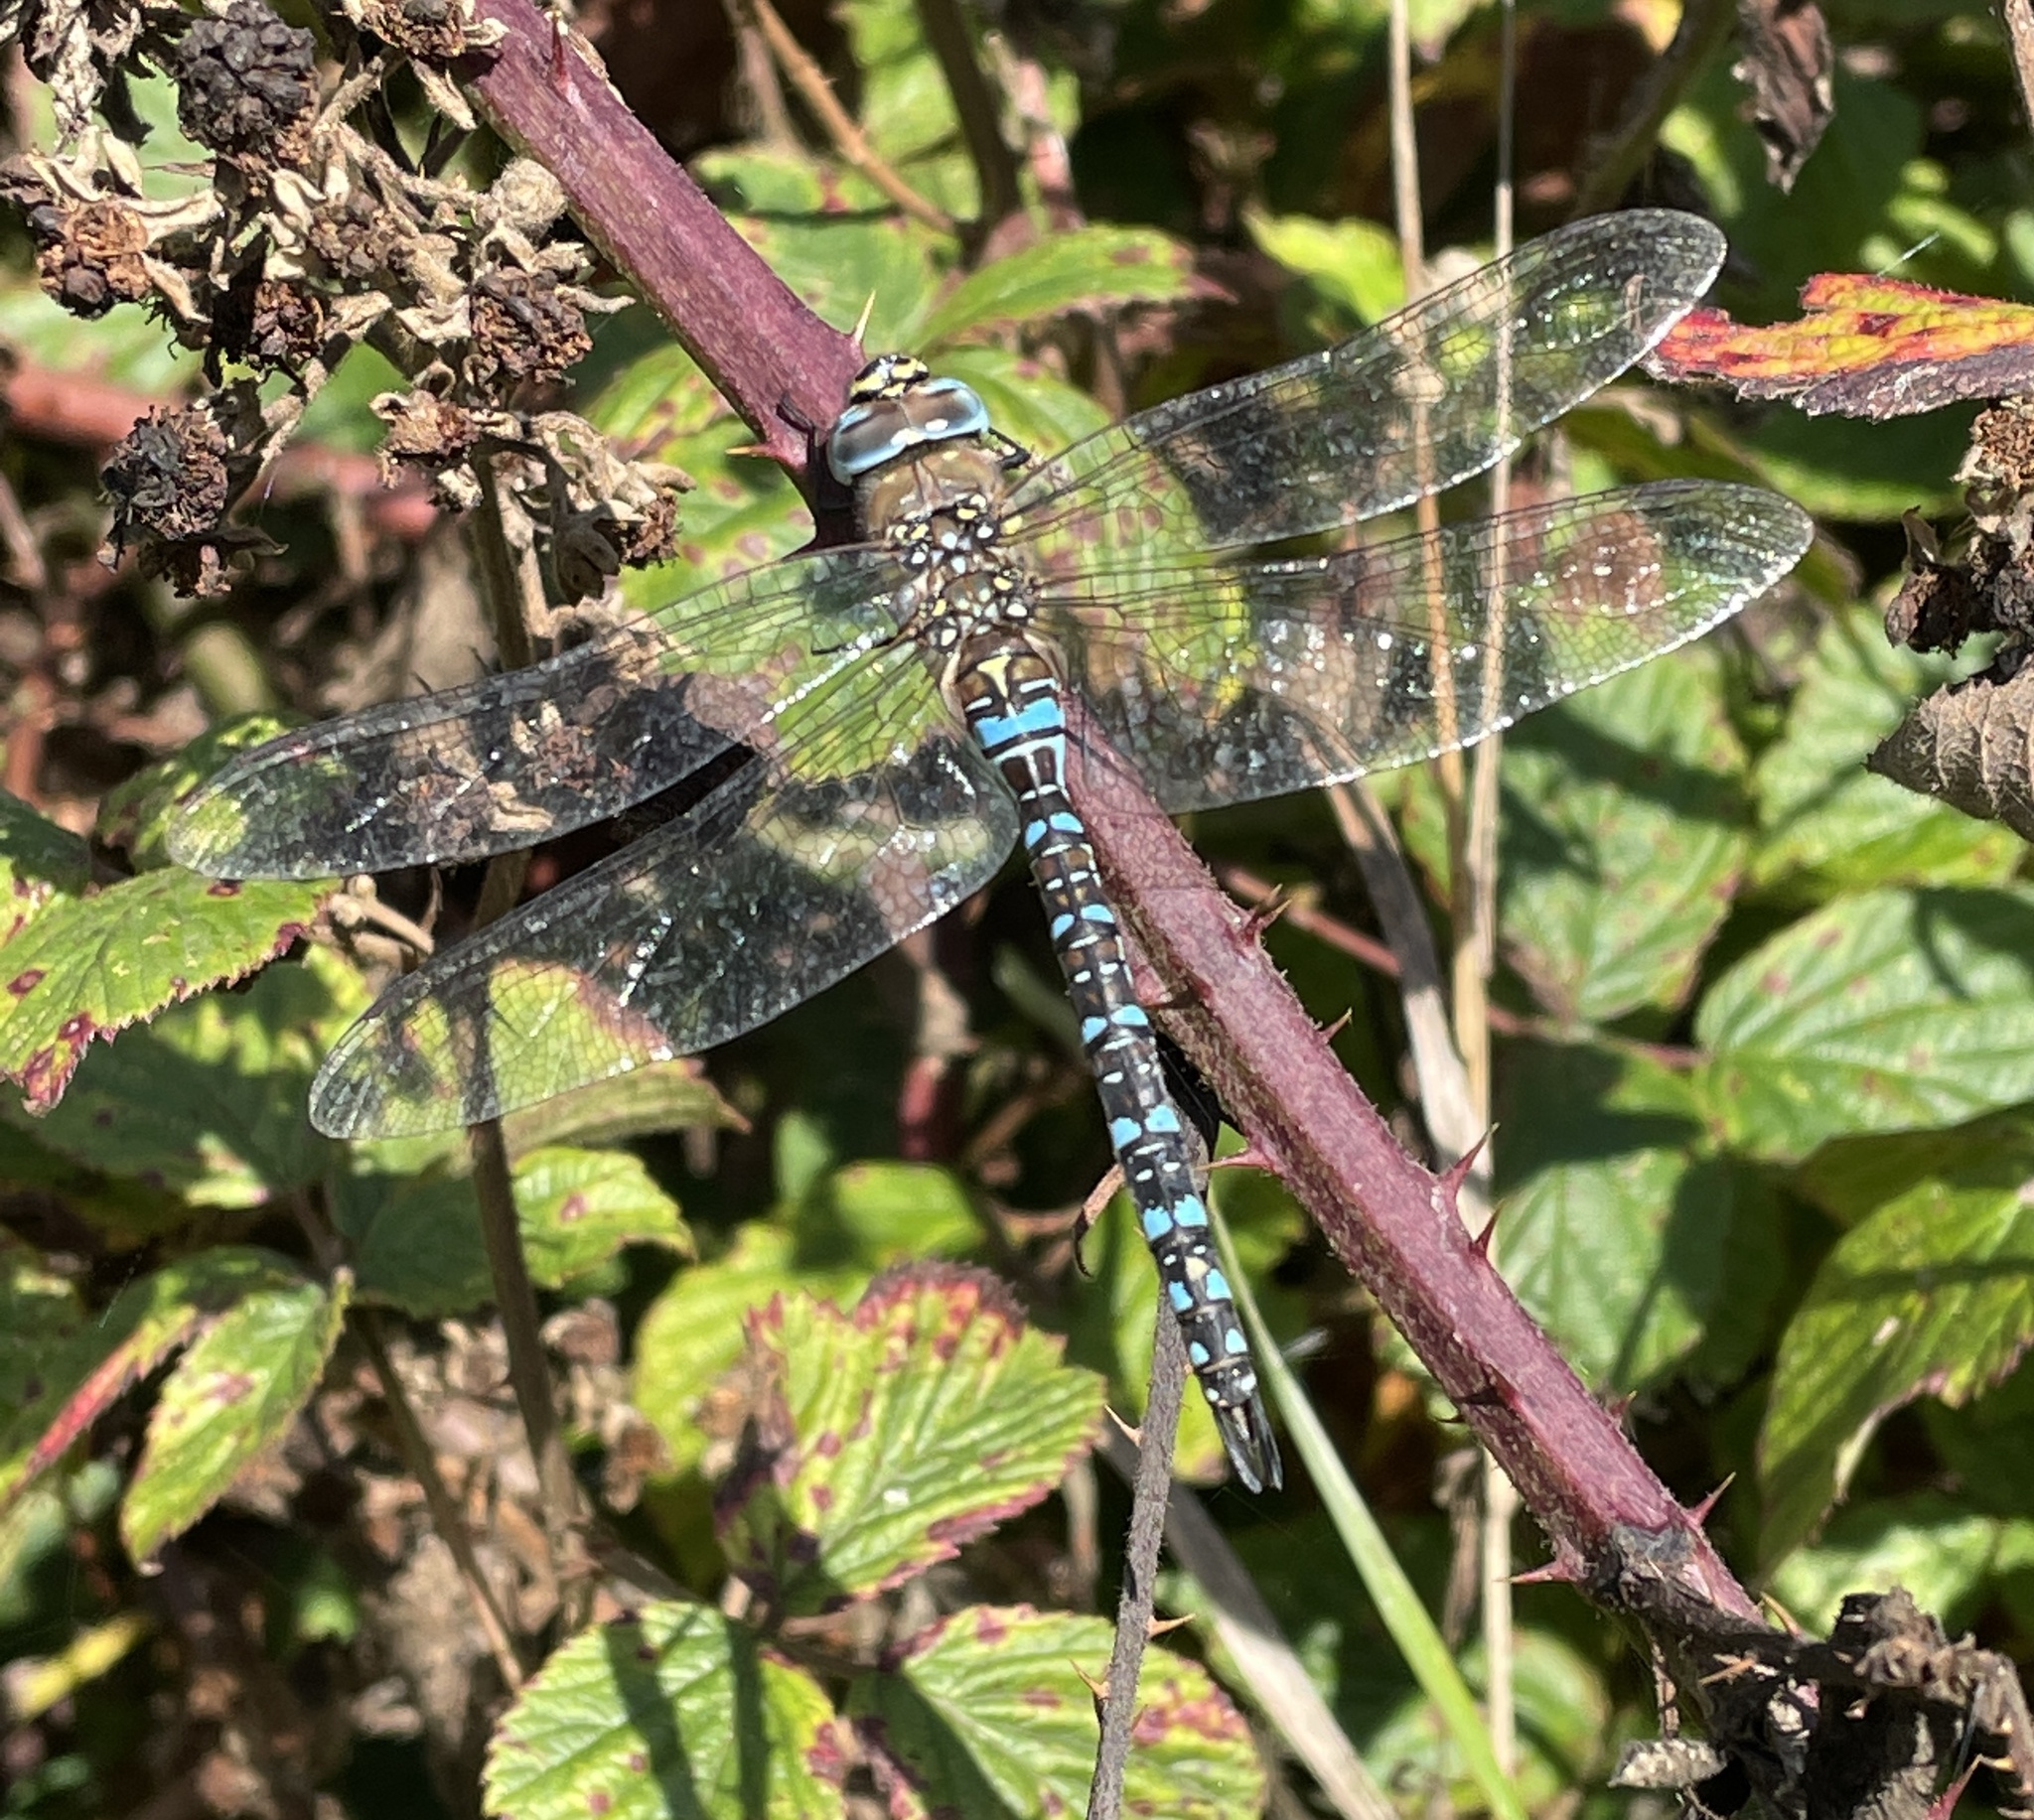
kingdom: Animalia
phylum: Arthropoda
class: Insecta
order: Odonata
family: Aeshnidae
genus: Aeshna
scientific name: Aeshna mixta
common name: Migrant hawker
